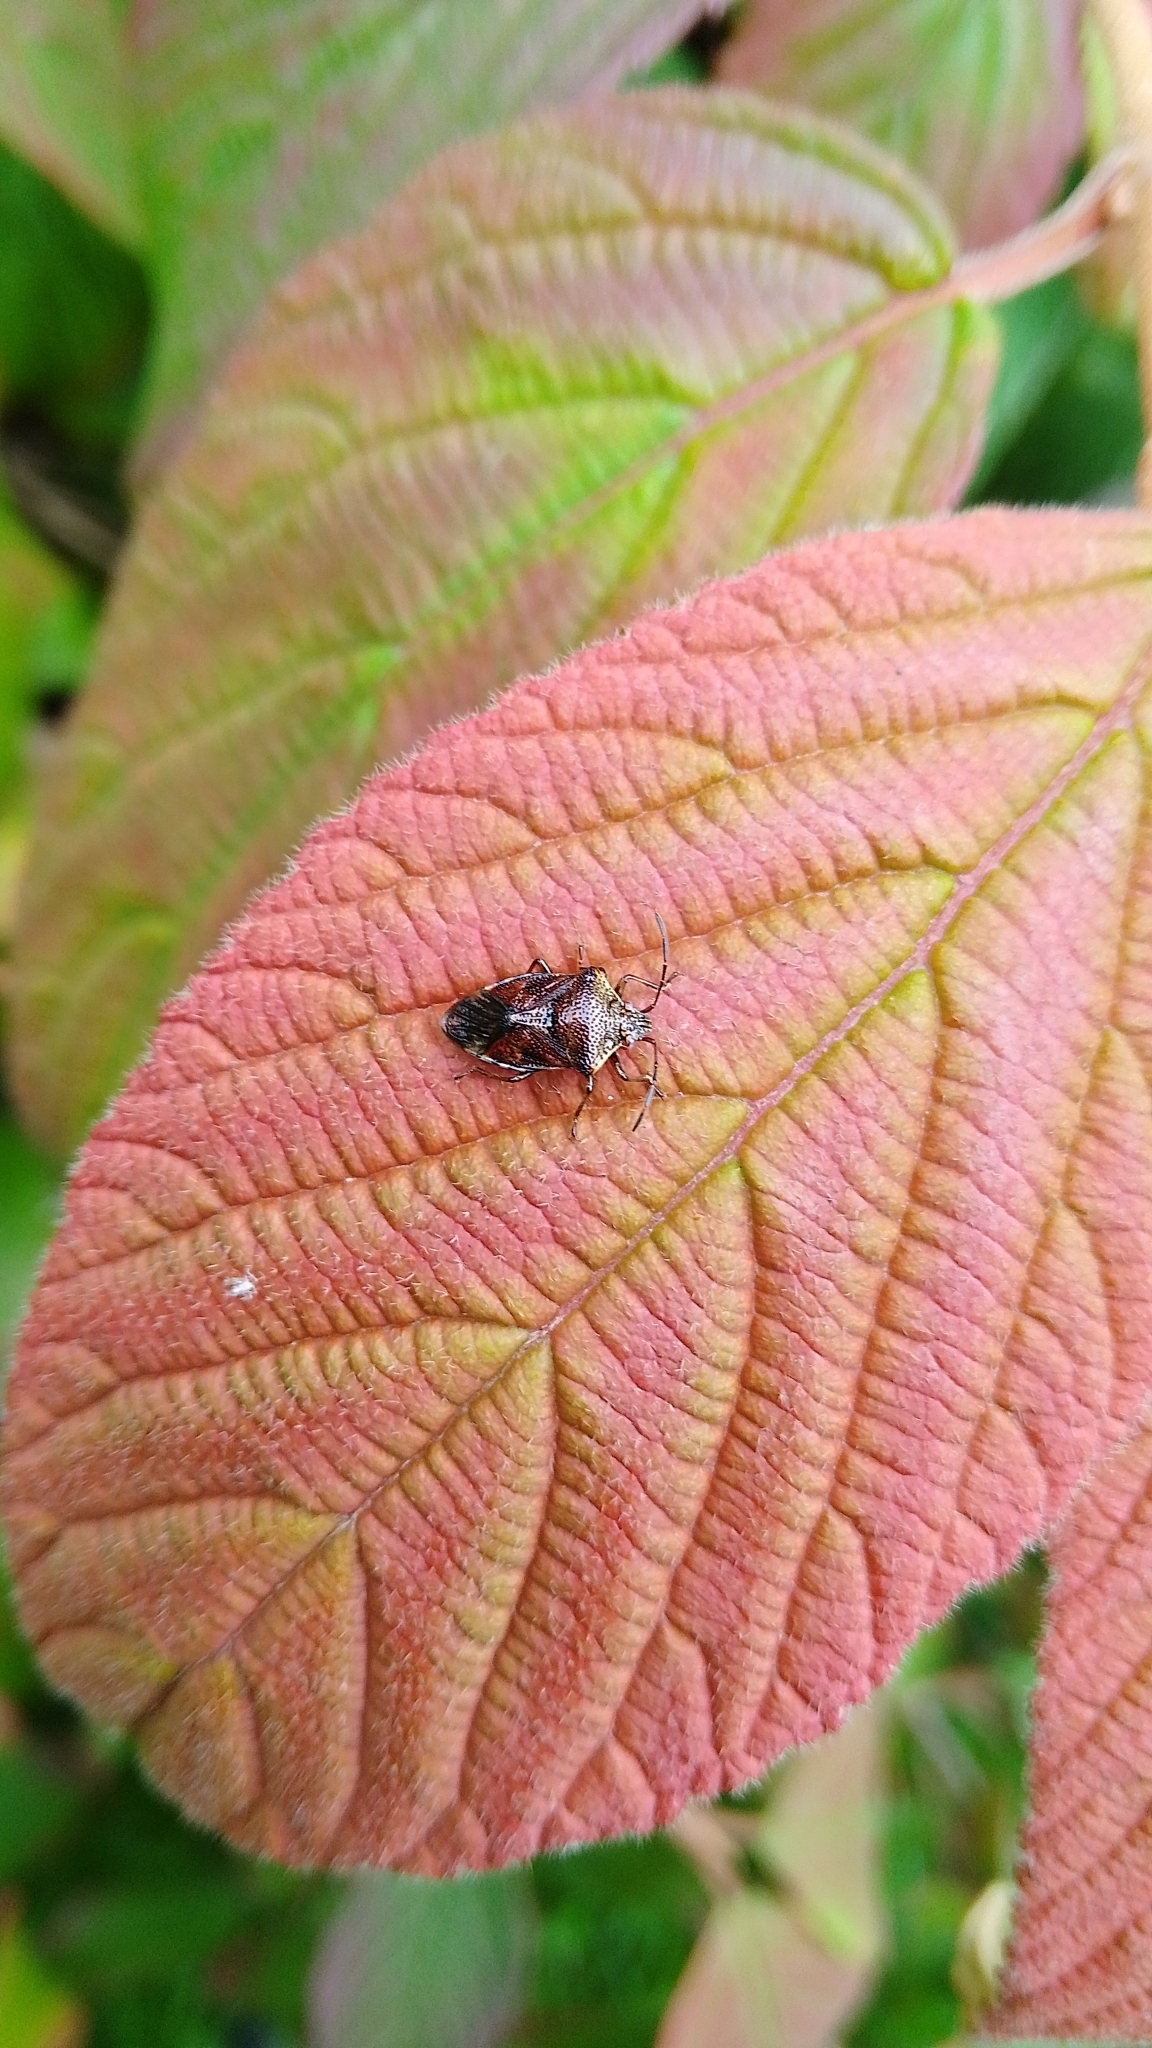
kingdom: Animalia
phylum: Arthropoda
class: Insecta
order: Hemiptera
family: Acanthosomatidae
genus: Elasmucha
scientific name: Elasmucha grisea
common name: Parent bug
